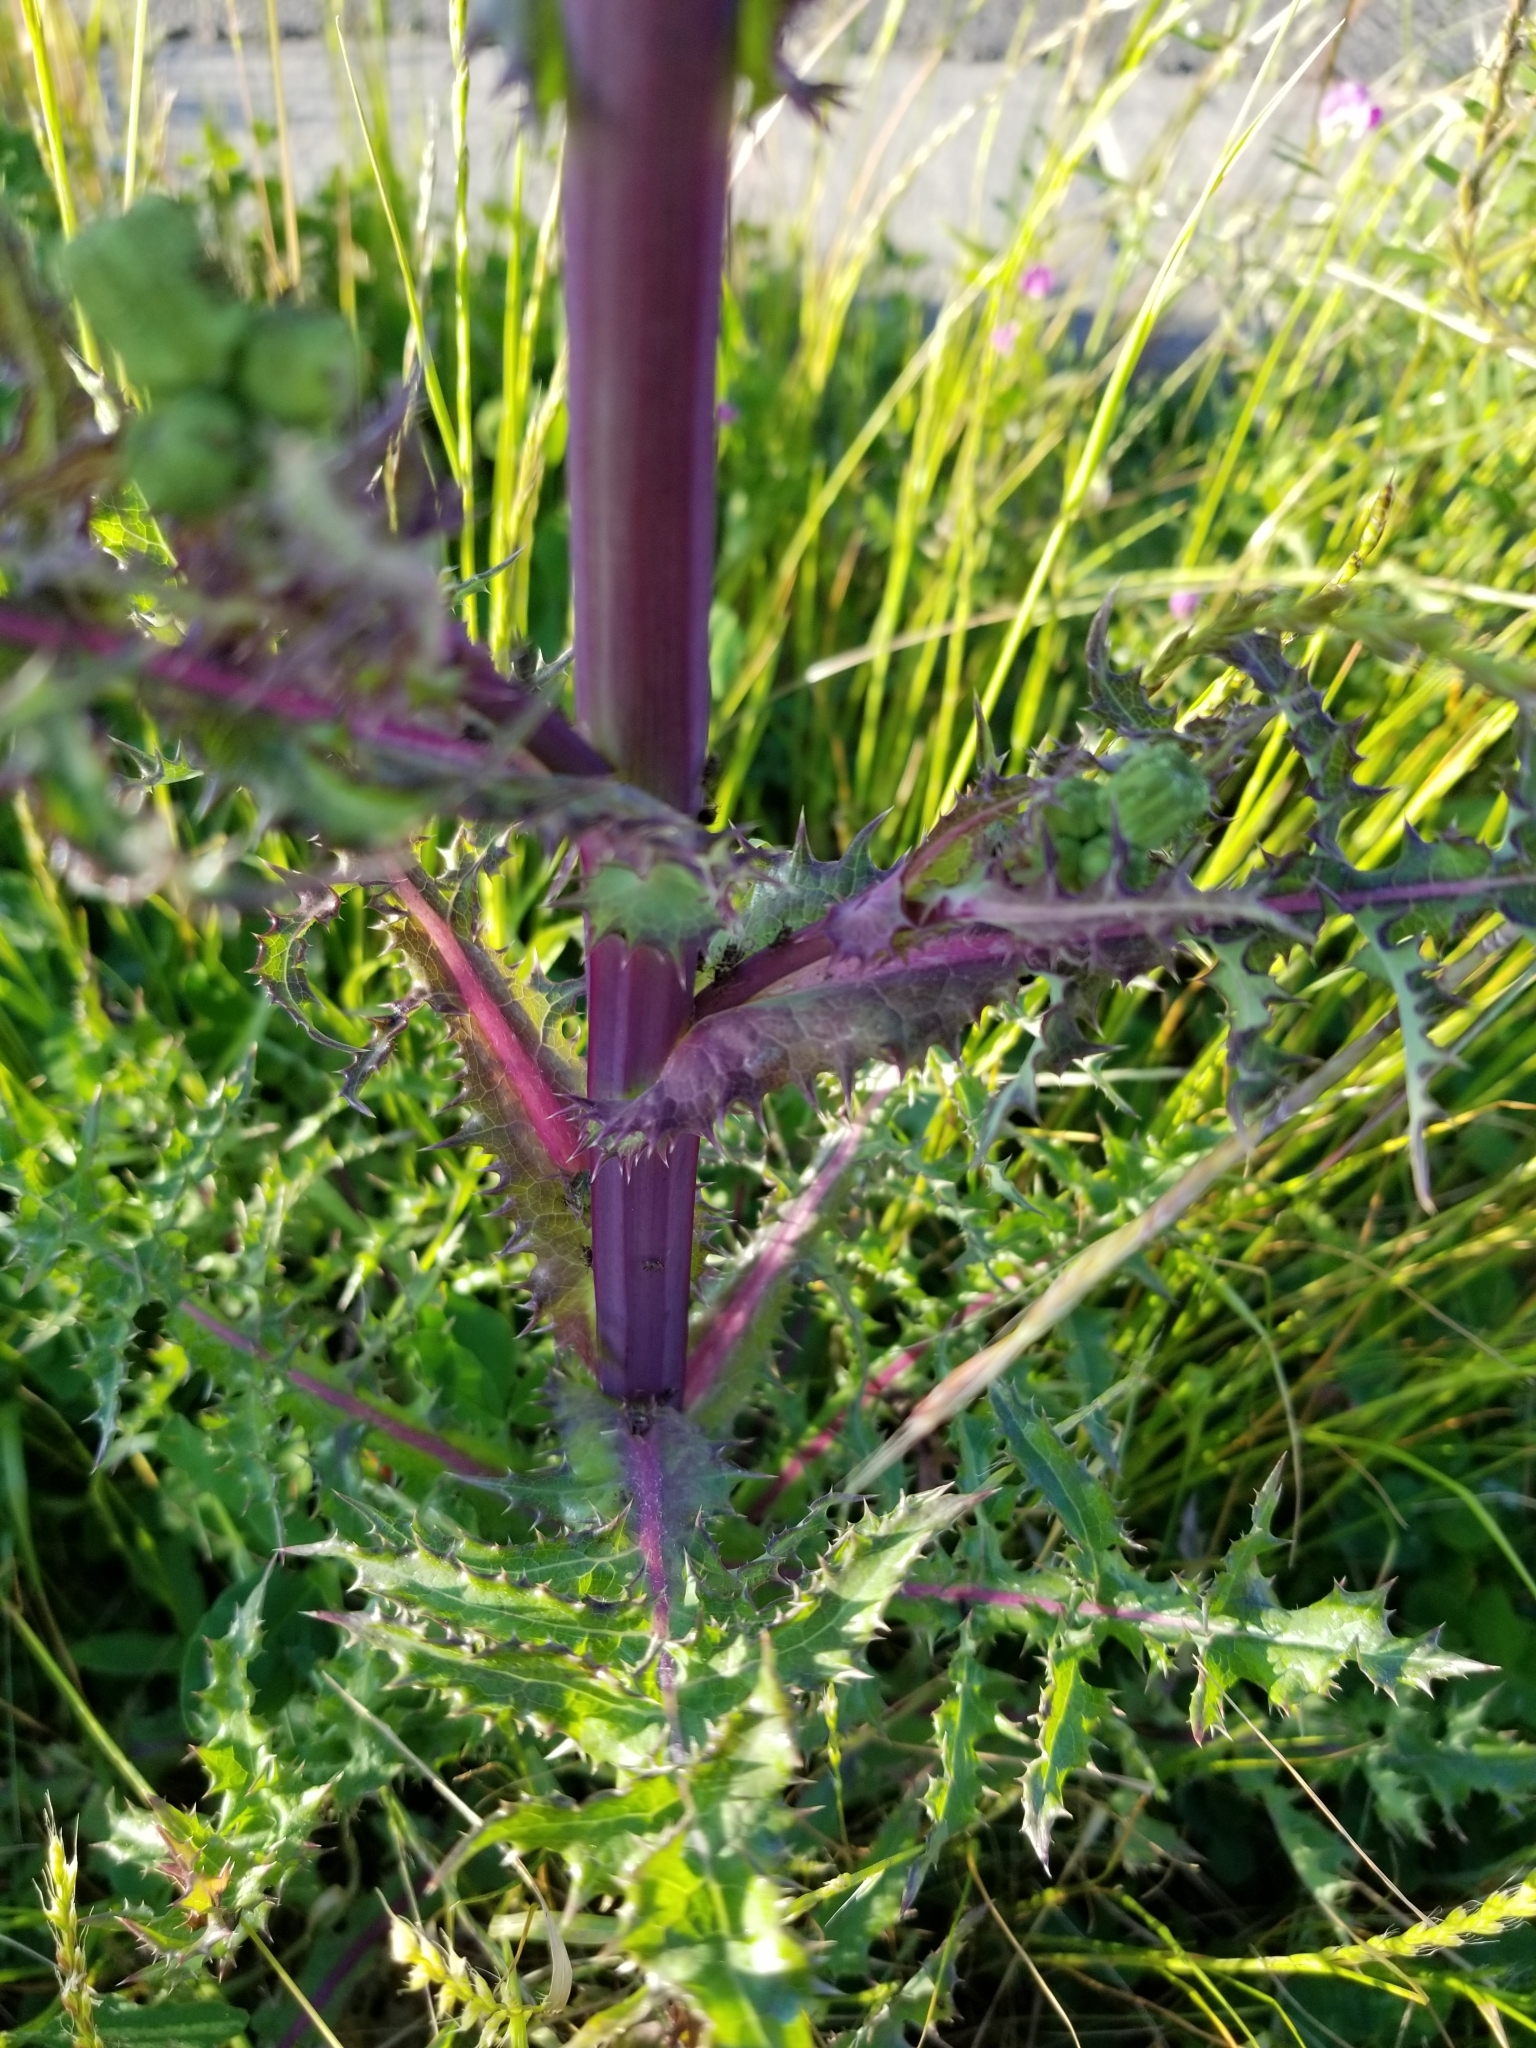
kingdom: Plantae
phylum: Tracheophyta
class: Magnoliopsida
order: Asterales
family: Asteraceae
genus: Sonchus
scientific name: Sonchus asper
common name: Prickly sow-thistle
